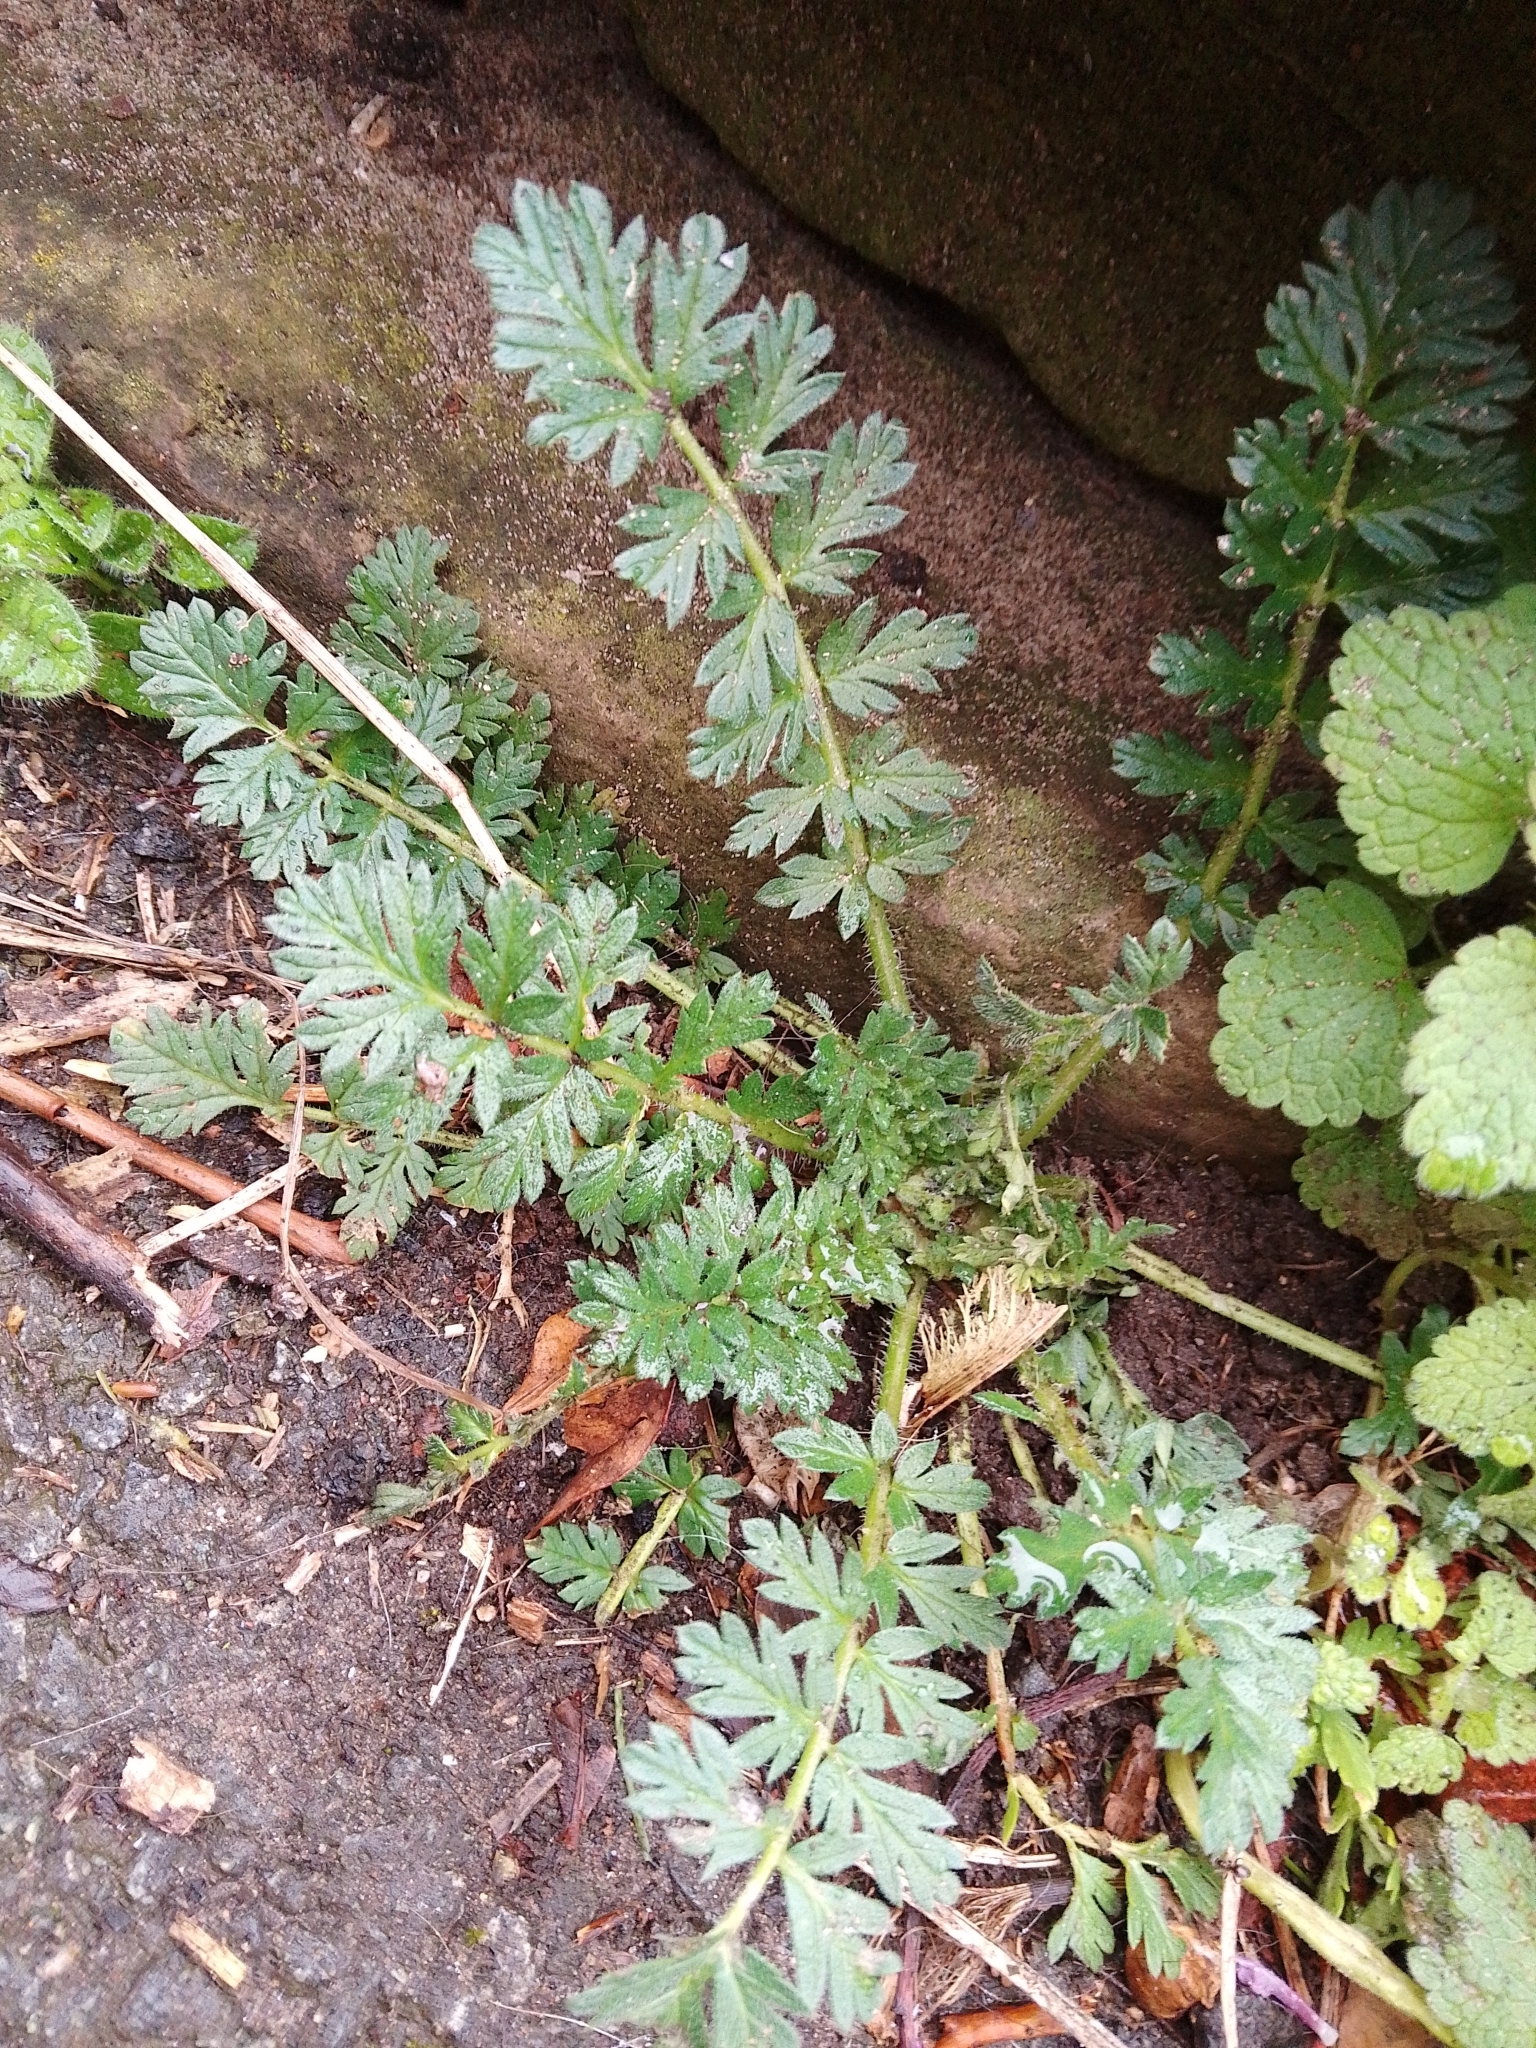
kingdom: Plantae
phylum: Tracheophyta
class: Magnoliopsida
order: Geraniales
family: Geraniaceae
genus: Erodium
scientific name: Erodium cicutarium
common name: Common stork's-bill
